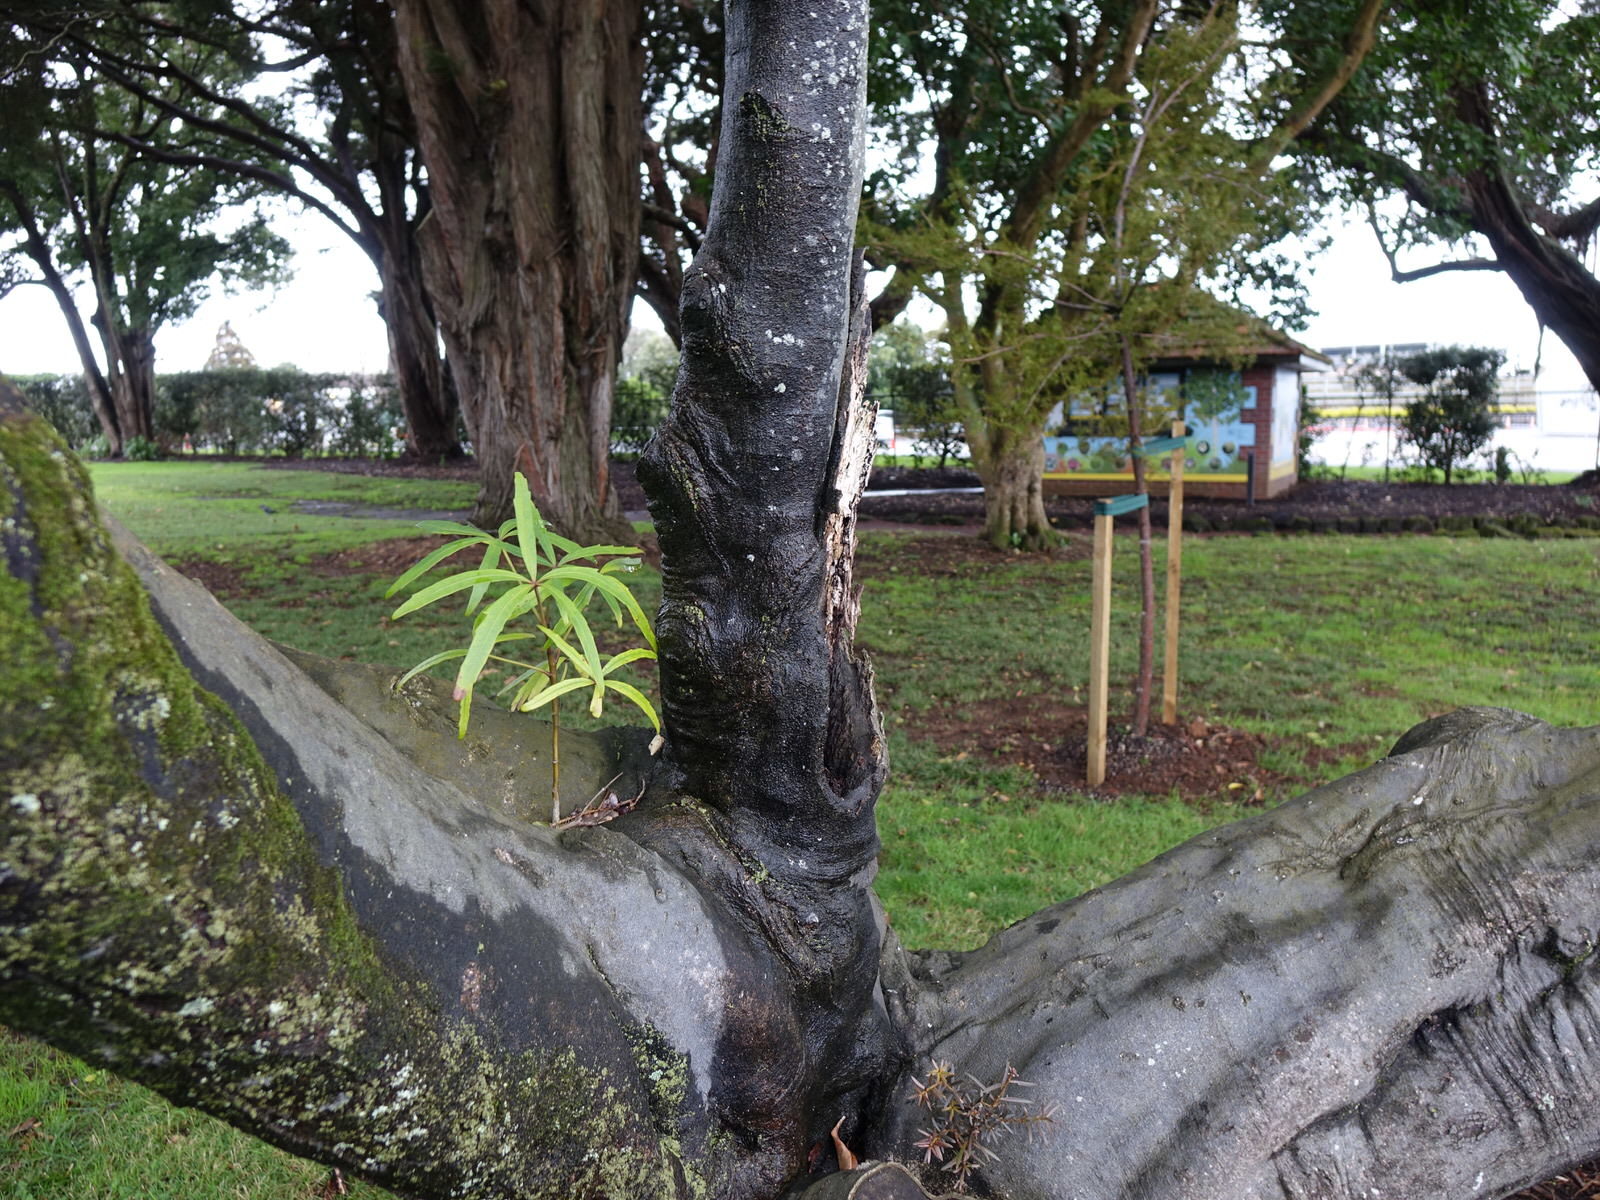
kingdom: Plantae
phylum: Tracheophyta
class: Magnoliopsida
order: Apiales
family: Araliaceae
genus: Pseudopanax
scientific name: Pseudopanax
